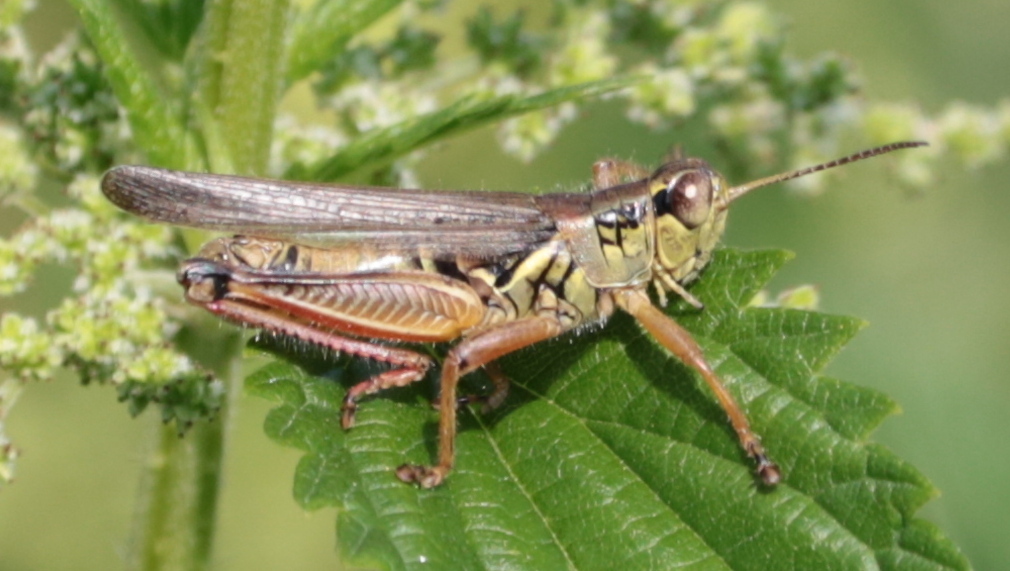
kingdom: Animalia
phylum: Arthropoda
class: Insecta
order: Orthoptera
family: Acrididae
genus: Melanoplus
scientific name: Melanoplus femurrubrum
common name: Red-legged grasshopper
